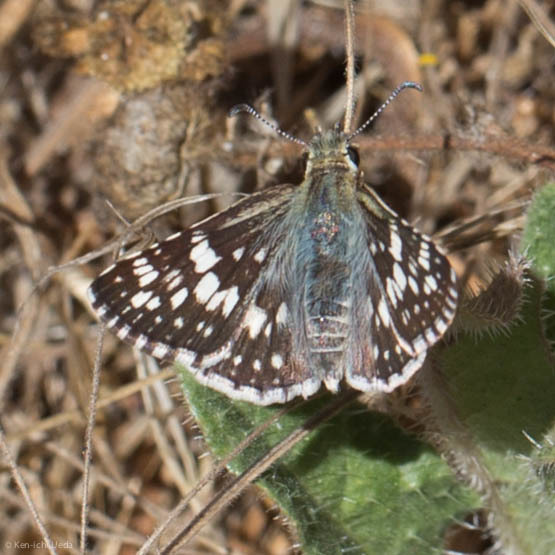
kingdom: Animalia
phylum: Arthropoda
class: Insecta
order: Lepidoptera
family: Hesperiidae
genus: Burnsius
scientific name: Burnsius communis
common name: Common checkered-skipper
